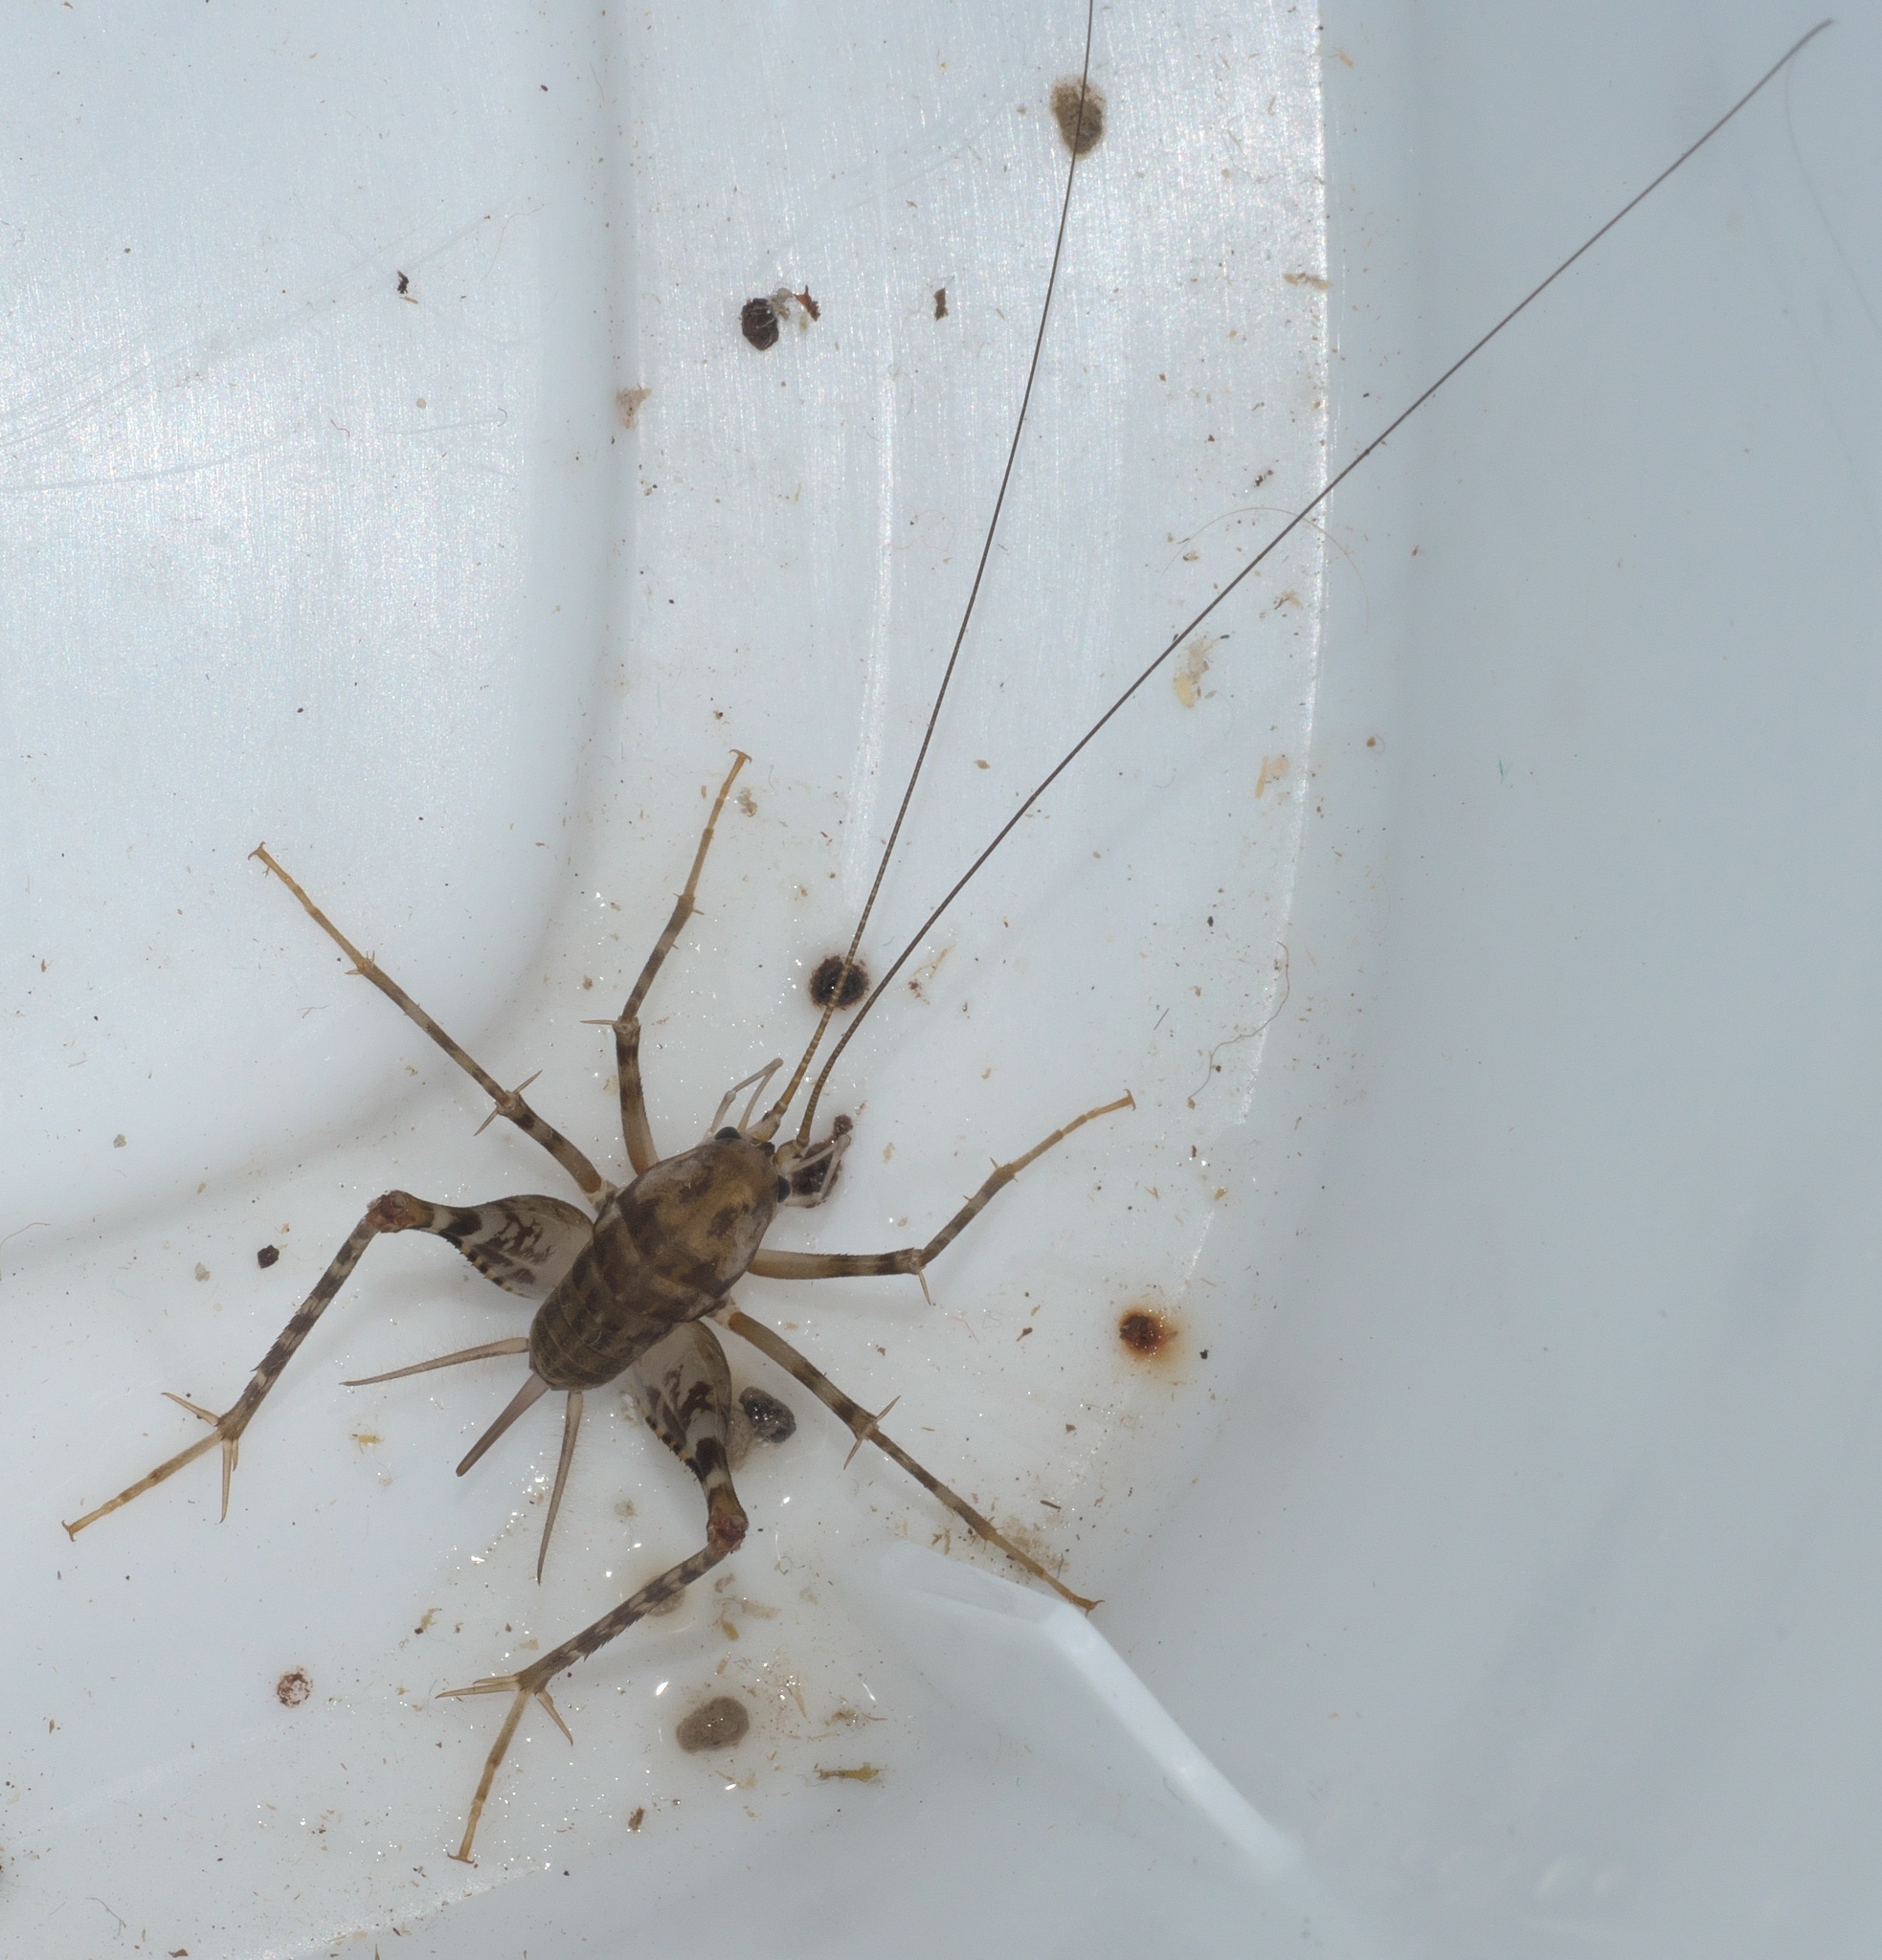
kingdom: Animalia
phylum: Arthropoda
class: Insecta
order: Orthoptera
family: Rhaphidophoridae
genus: Tachycines
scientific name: Tachycines asynamorus
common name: Greenhouse camel cricket
